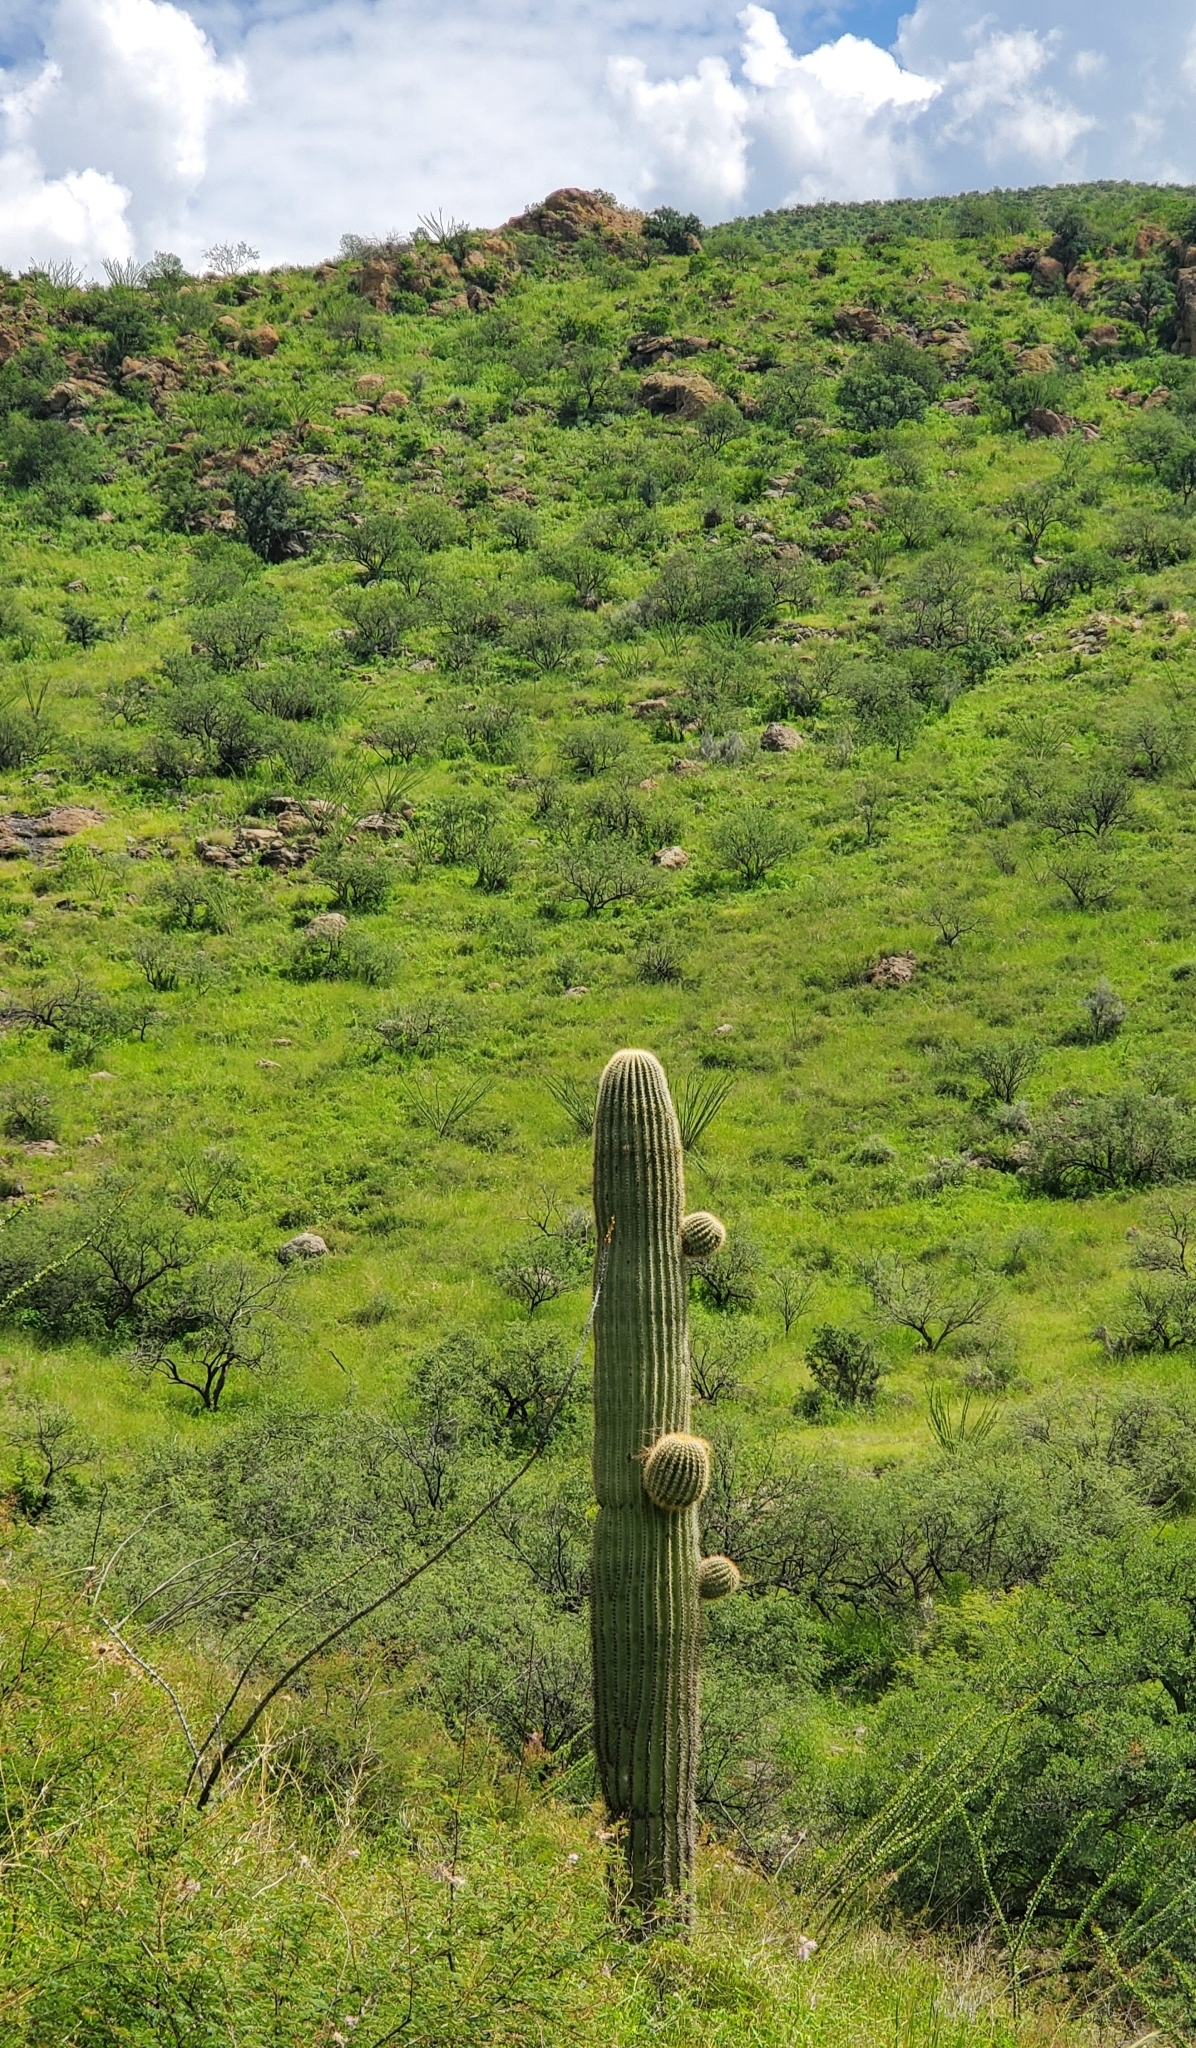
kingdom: Plantae
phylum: Tracheophyta
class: Magnoliopsida
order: Caryophyllales
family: Cactaceae
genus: Carnegiea
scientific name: Carnegiea gigantea
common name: Saguaro
